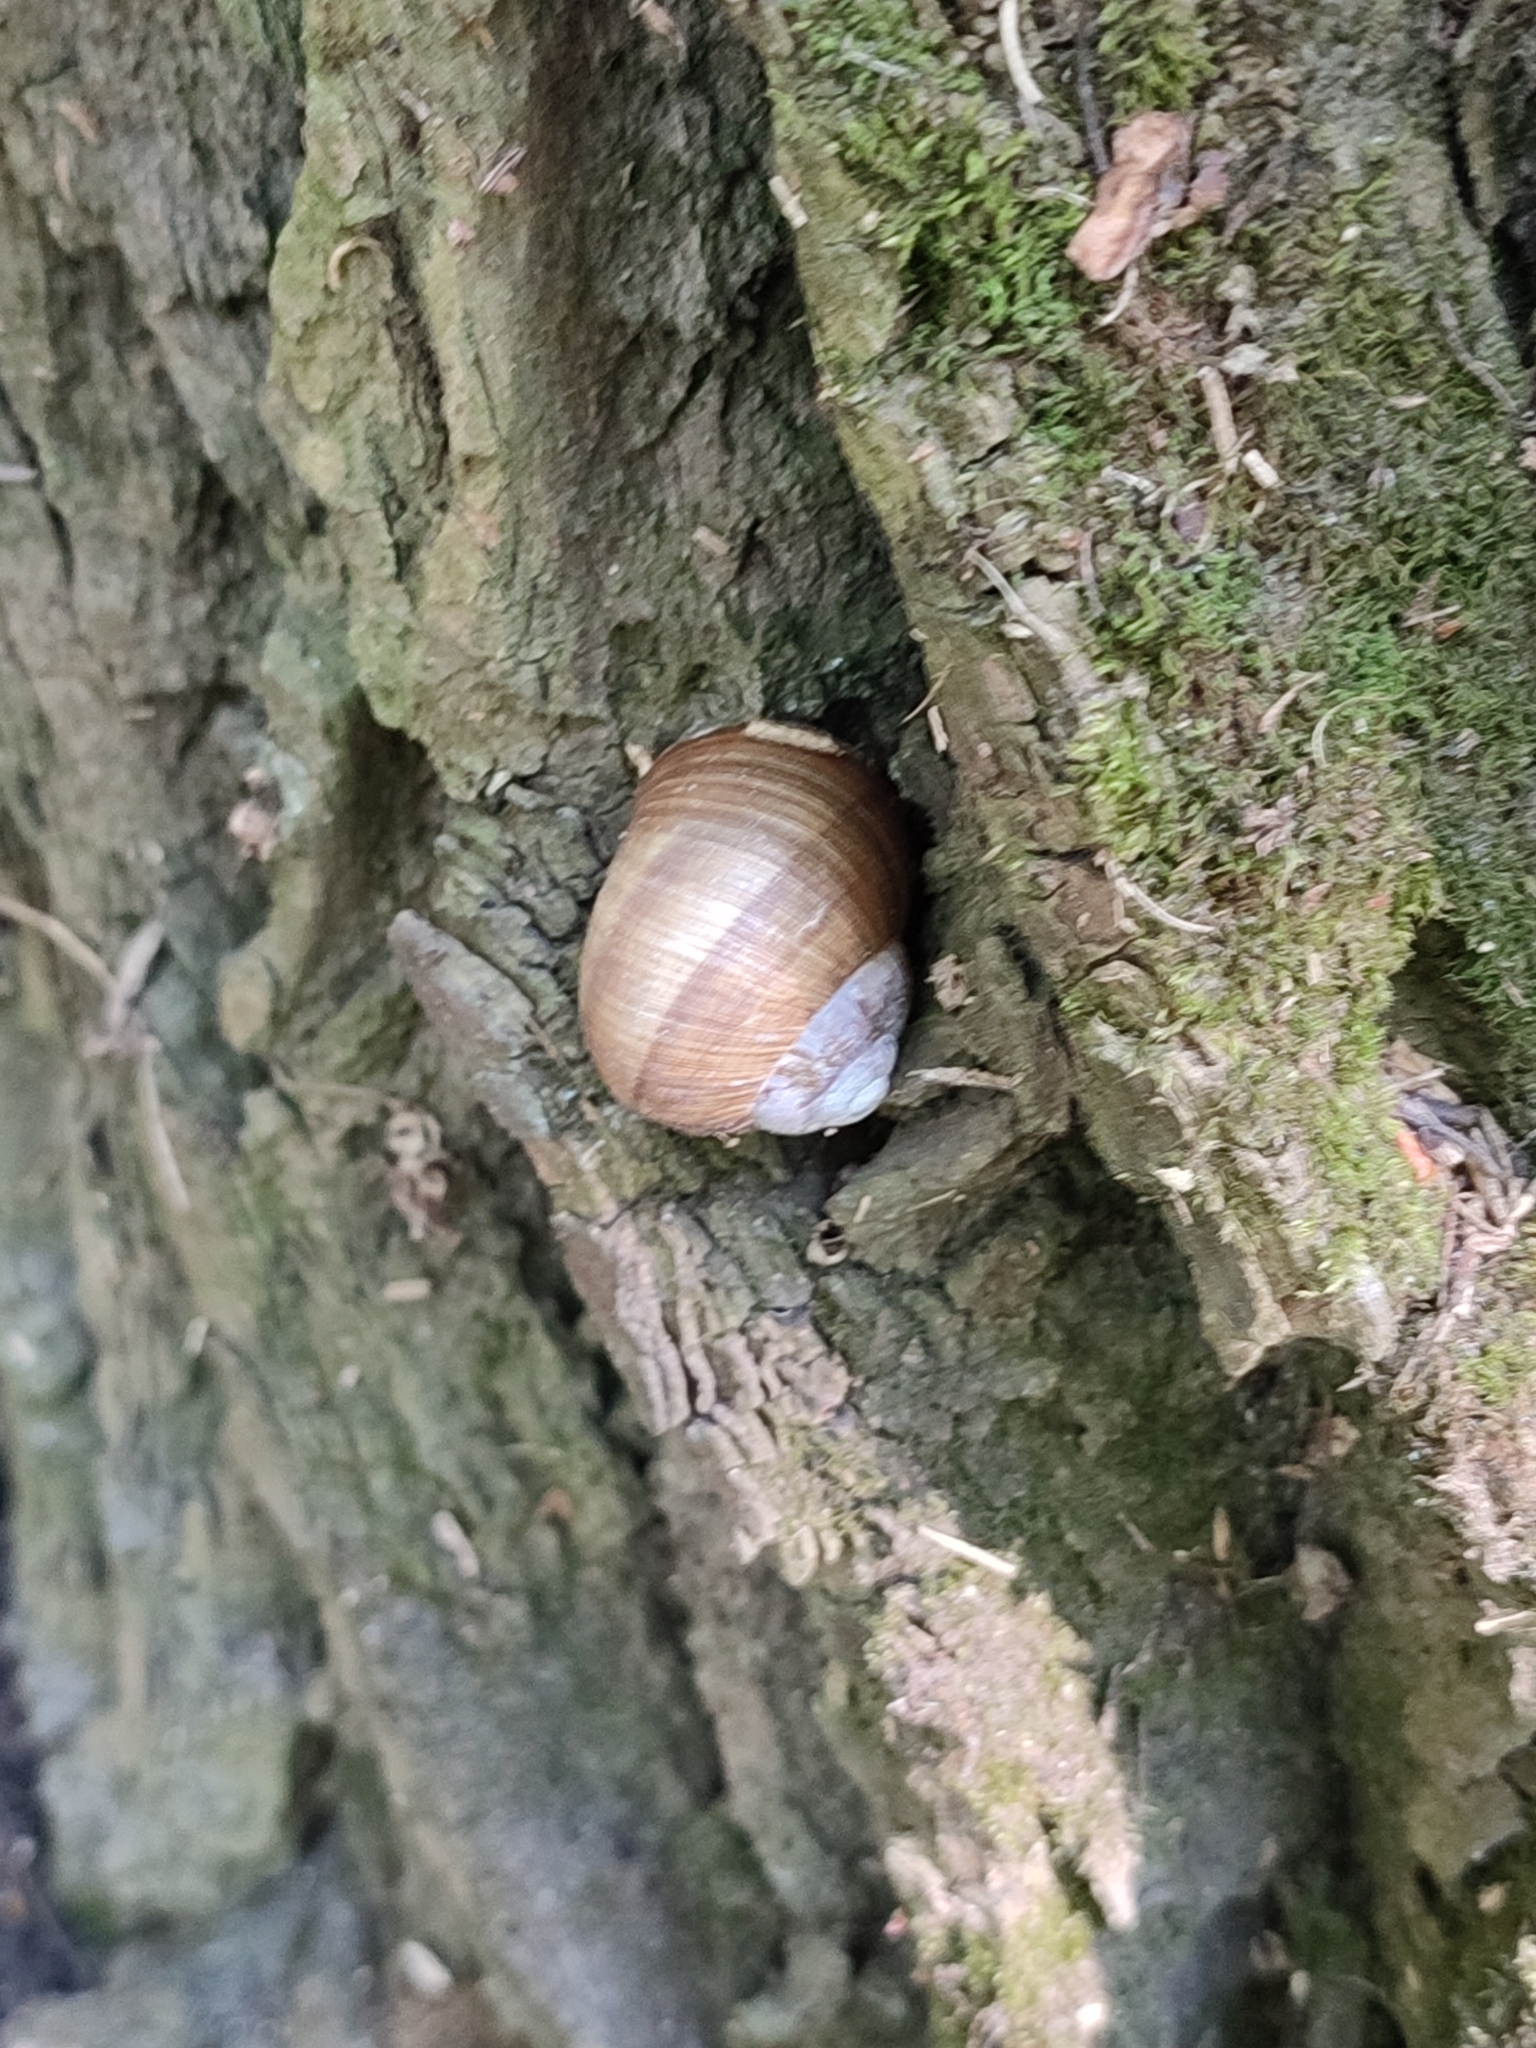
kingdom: Animalia
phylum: Mollusca
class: Gastropoda
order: Stylommatophora
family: Helicidae
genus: Helix
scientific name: Helix pomatia
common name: Roman snail
